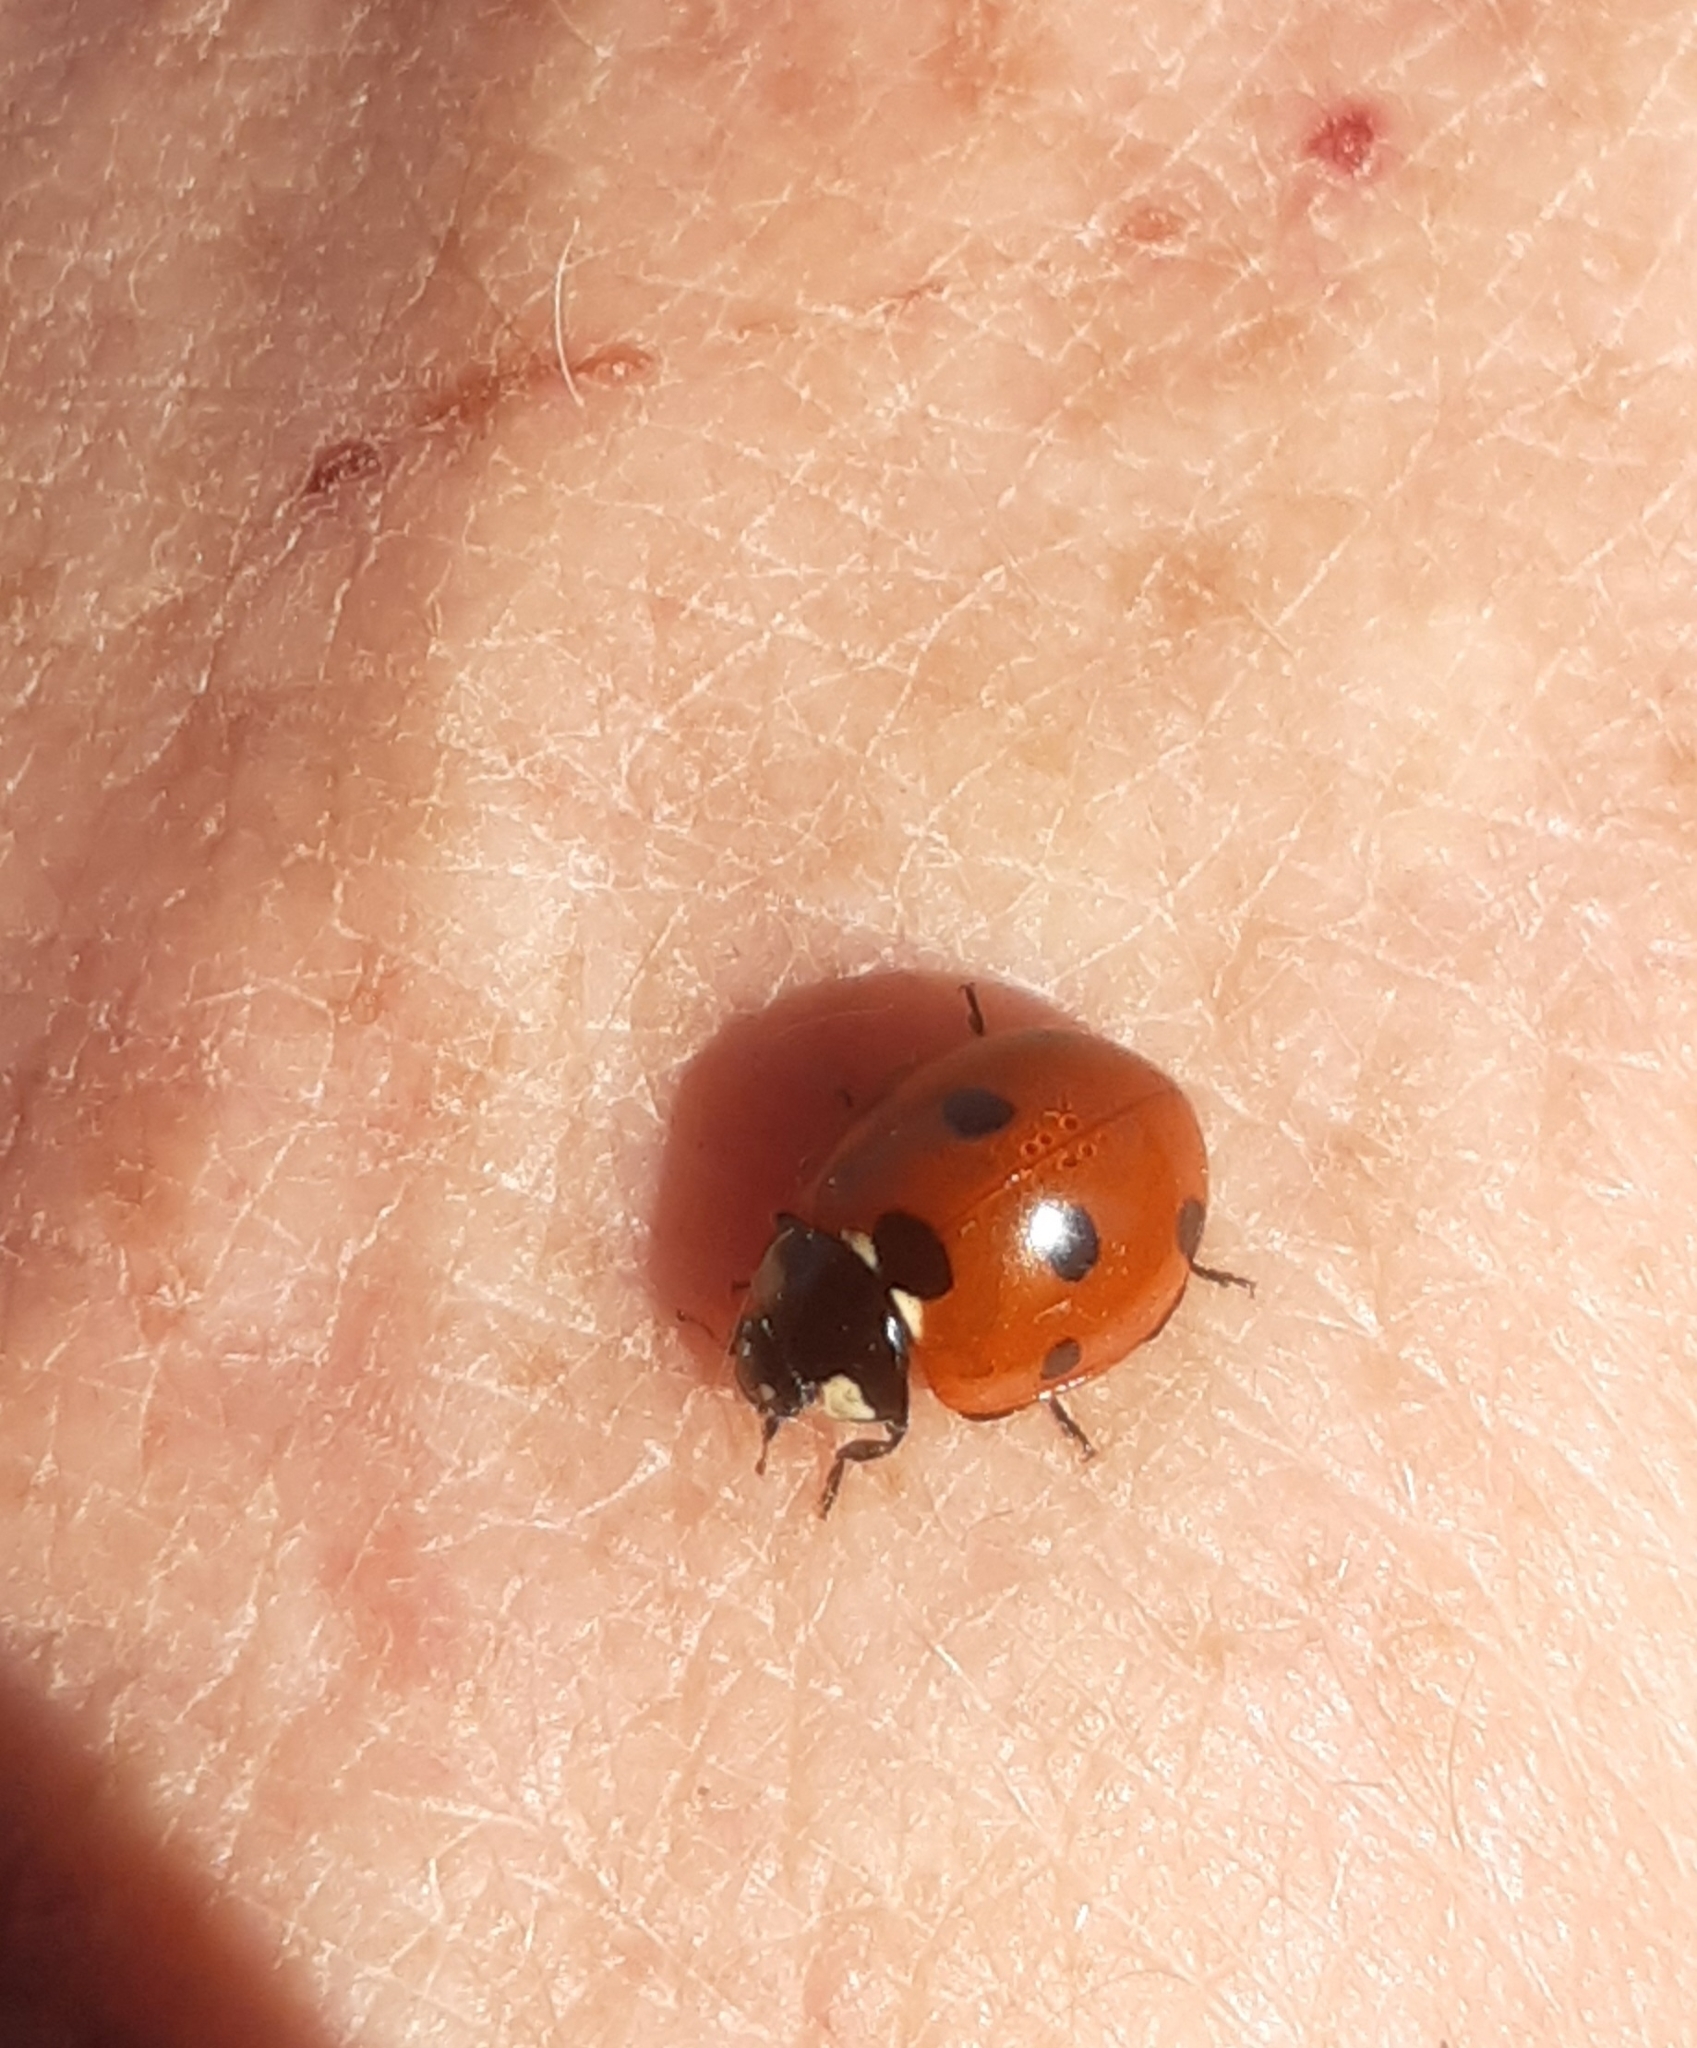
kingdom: Animalia
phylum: Arthropoda
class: Insecta
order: Coleoptera
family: Coccinellidae
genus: Coccinella
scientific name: Coccinella septempunctata
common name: Sevenspotted lady beetle
